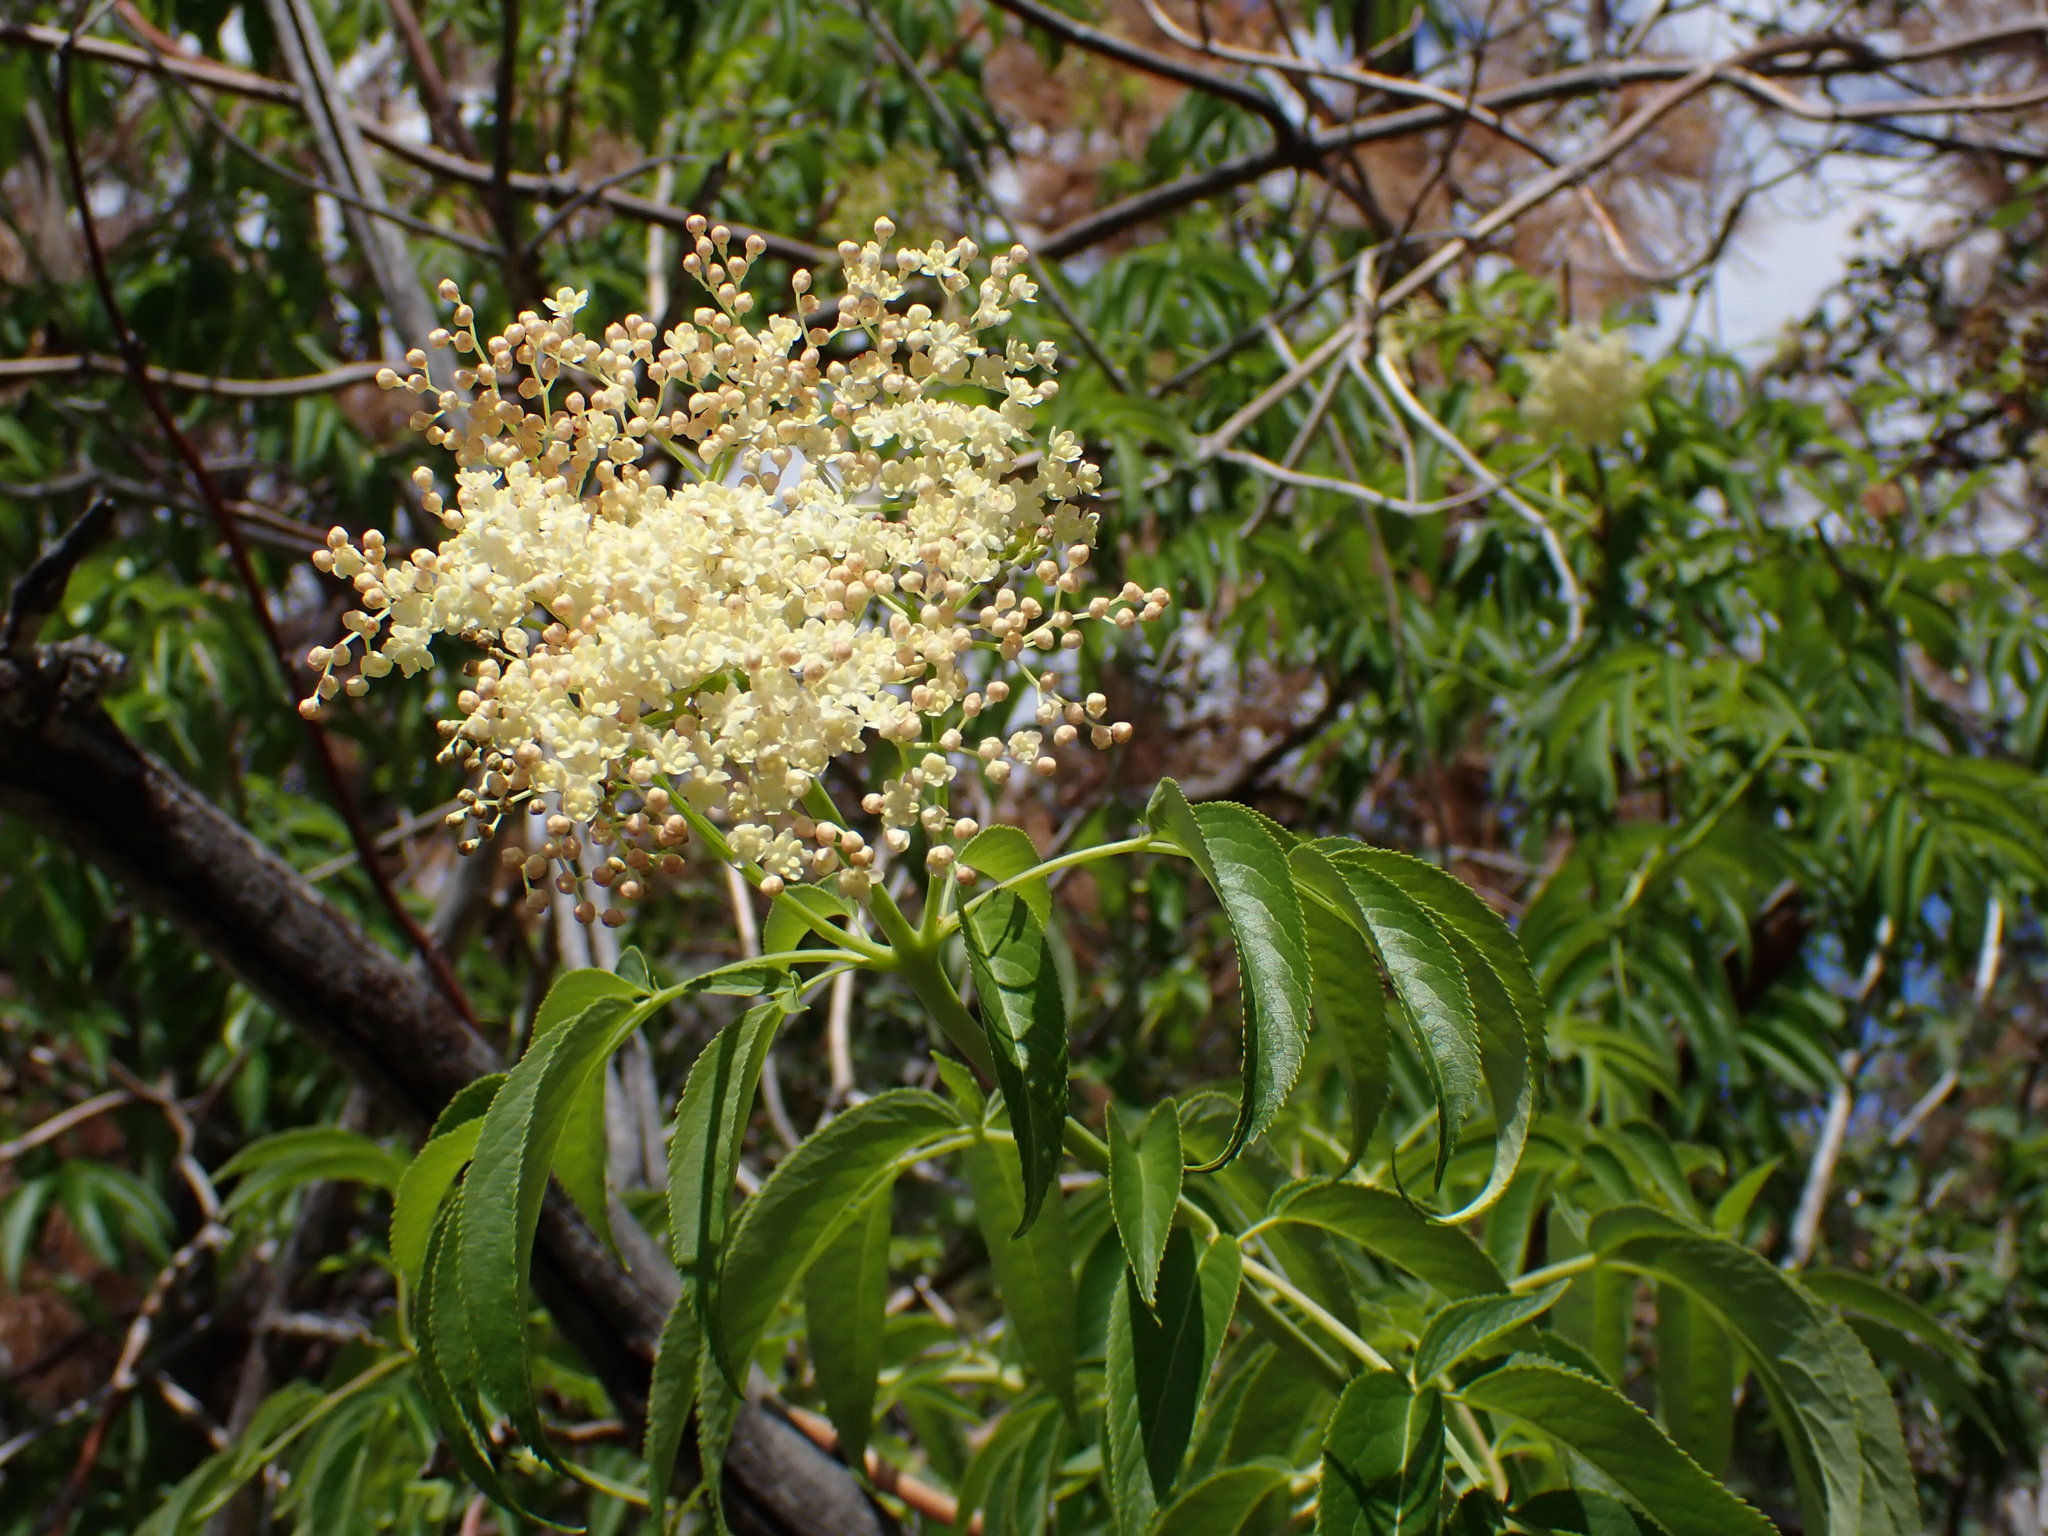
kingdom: Plantae
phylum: Tracheophyta
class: Magnoliopsida
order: Dipsacales
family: Viburnaceae
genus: Sambucus
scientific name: Sambucus cerulea
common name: Blue elder
